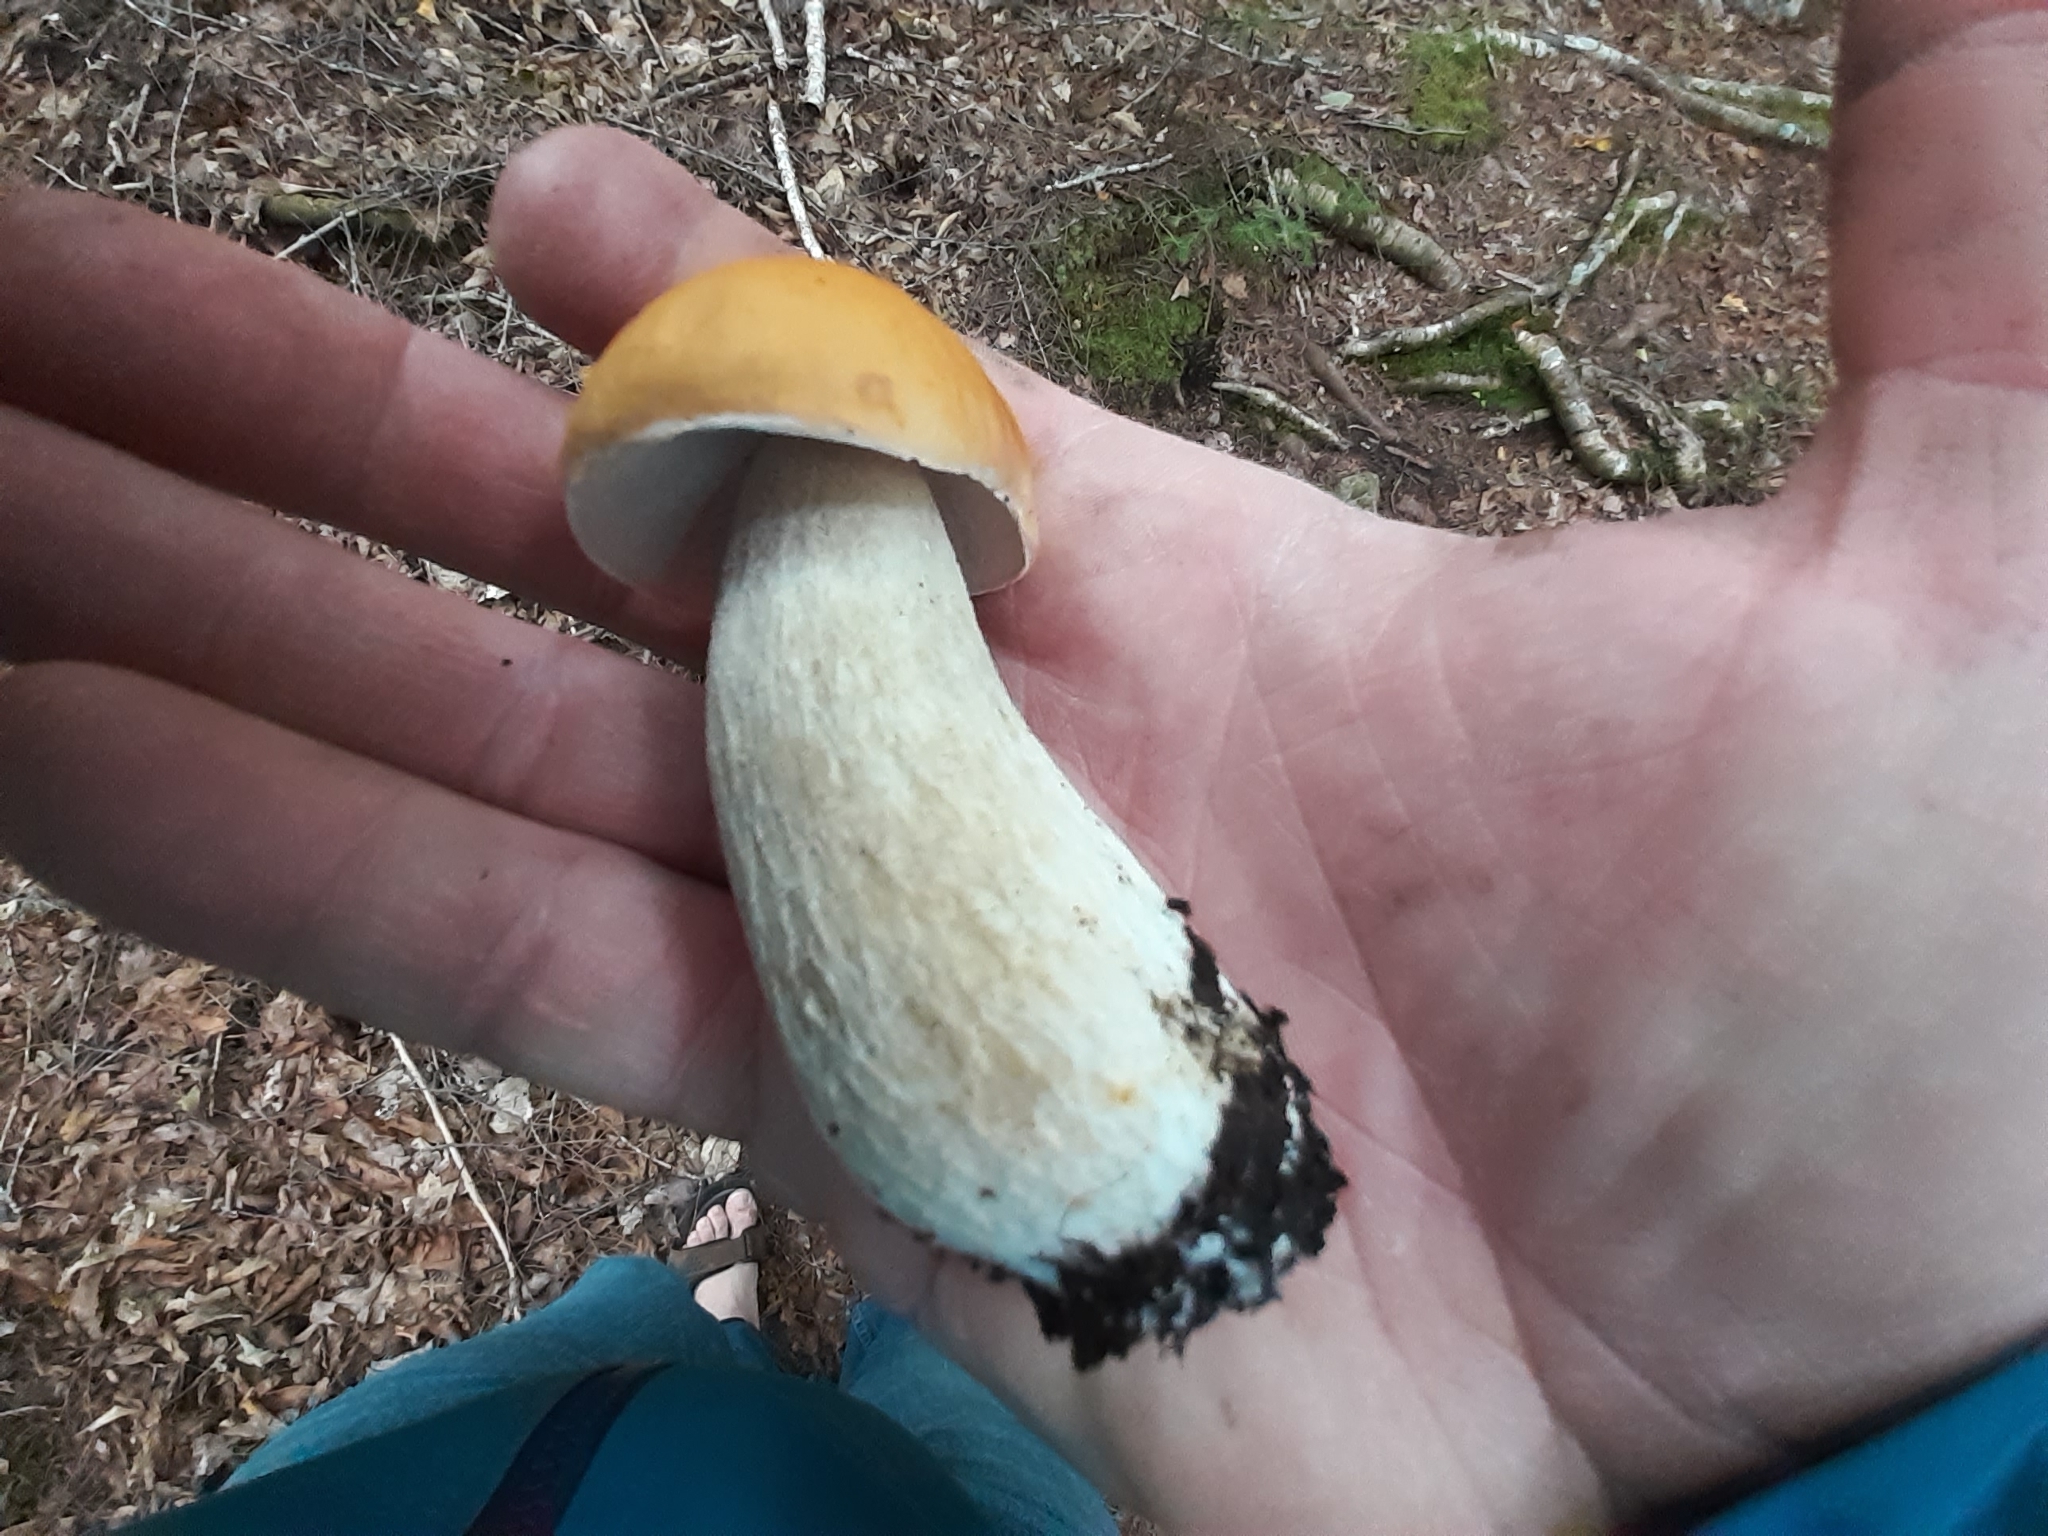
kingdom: Fungi
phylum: Basidiomycota
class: Agaricomycetes
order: Boletales
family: Boletaceae
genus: Boletus
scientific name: Boletus edulis
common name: Cep
